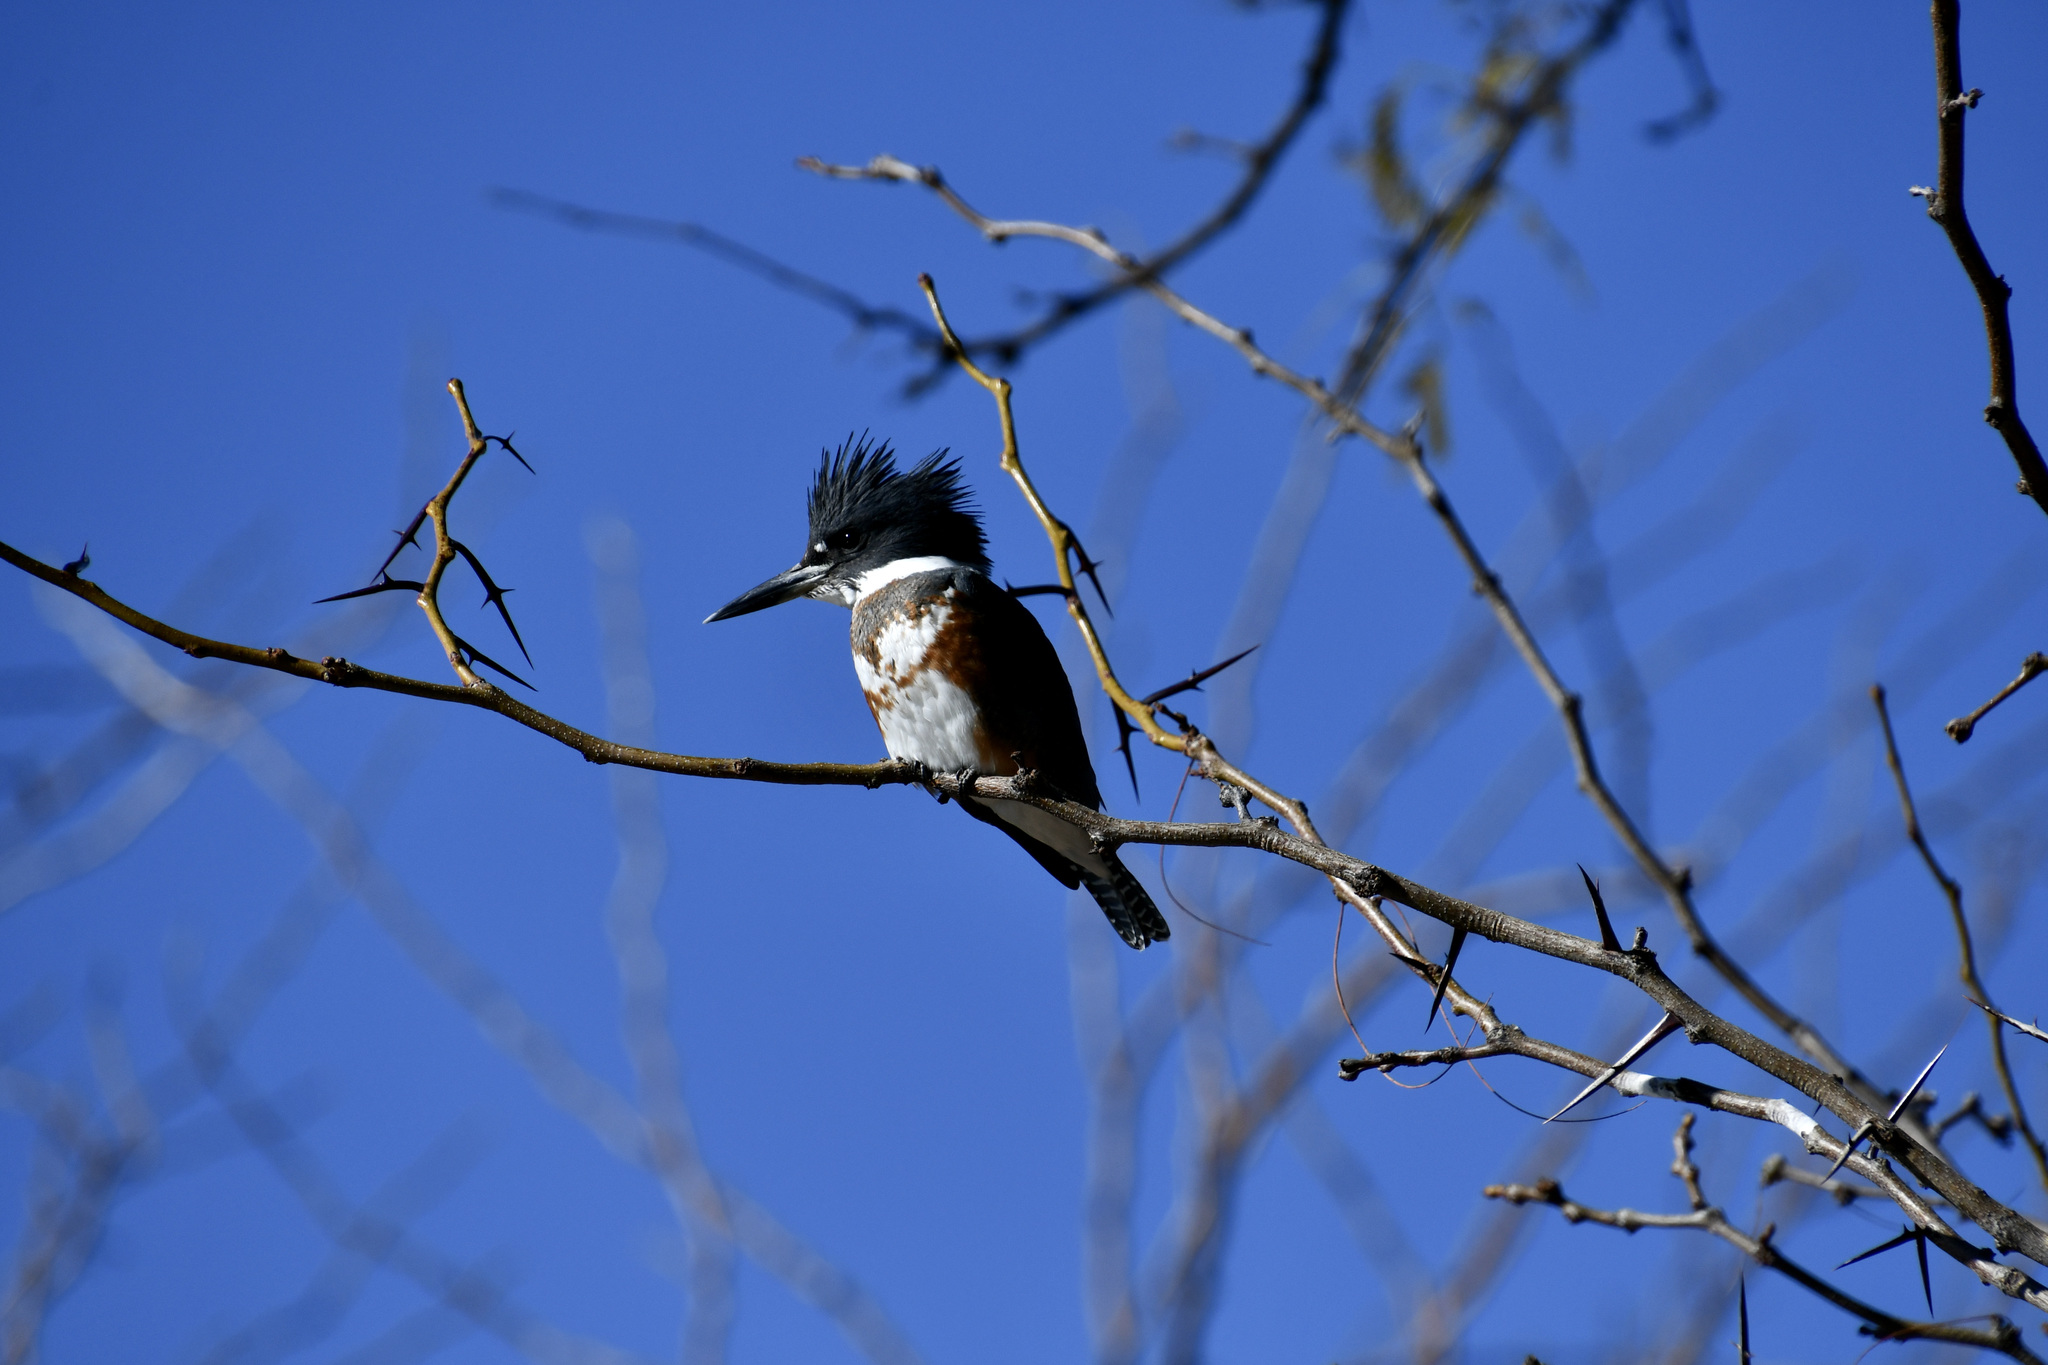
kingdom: Animalia
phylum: Chordata
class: Aves
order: Coraciiformes
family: Alcedinidae
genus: Megaceryle
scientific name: Megaceryle alcyon
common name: Belted kingfisher
